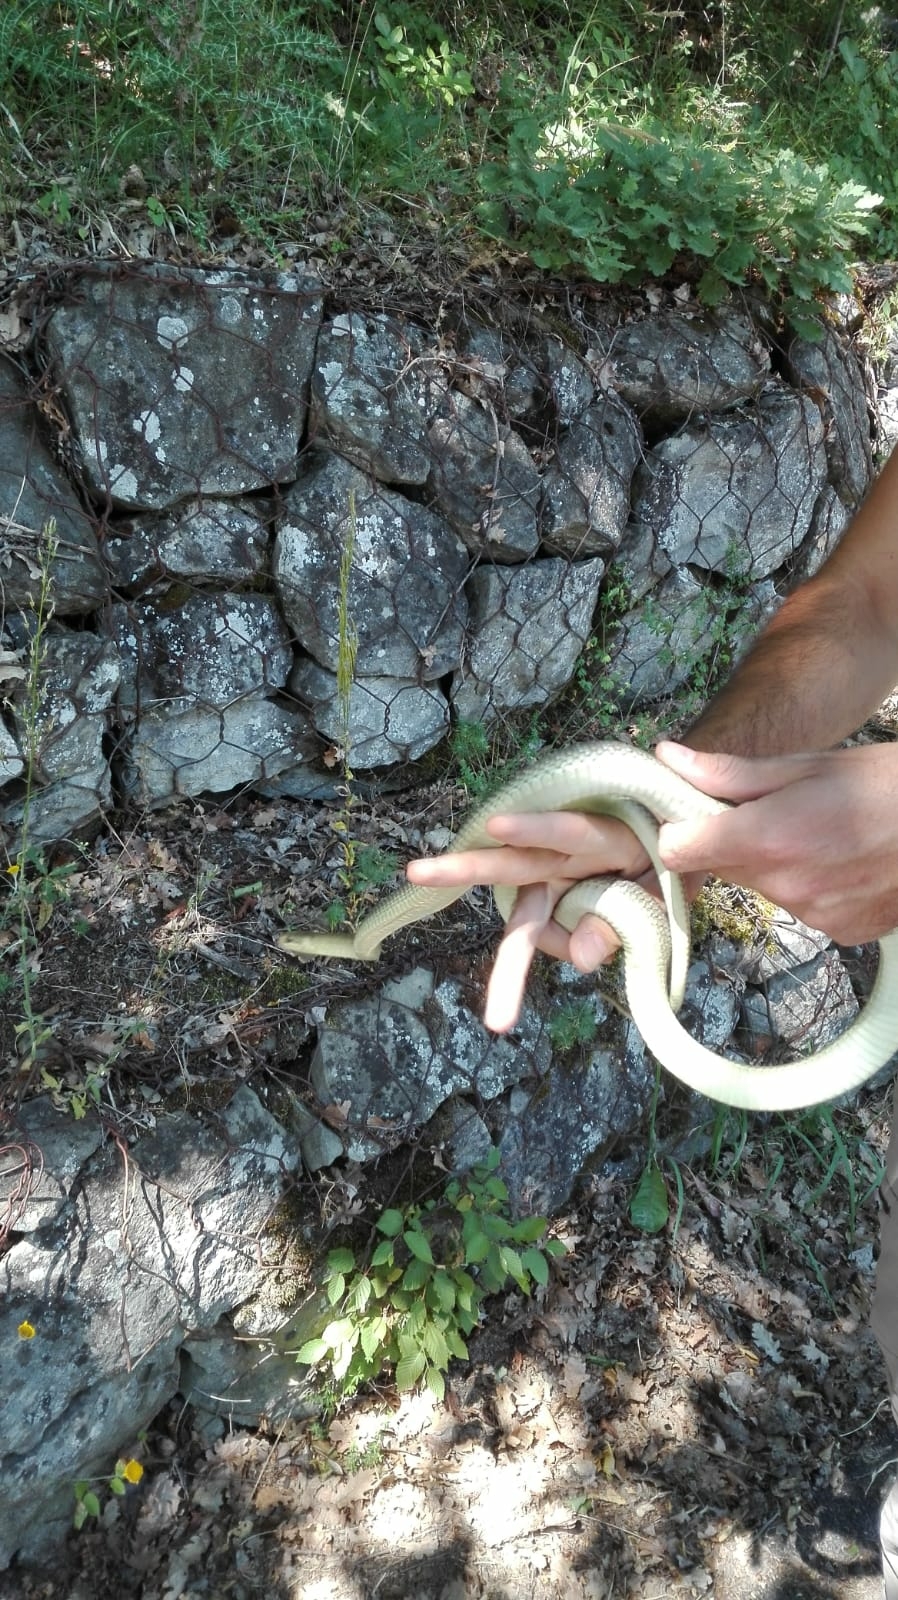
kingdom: Animalia
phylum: Chordata
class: Squamata
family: Colubridae
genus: Zamenis
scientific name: Zamenis longissimus
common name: Aesculapean snake
